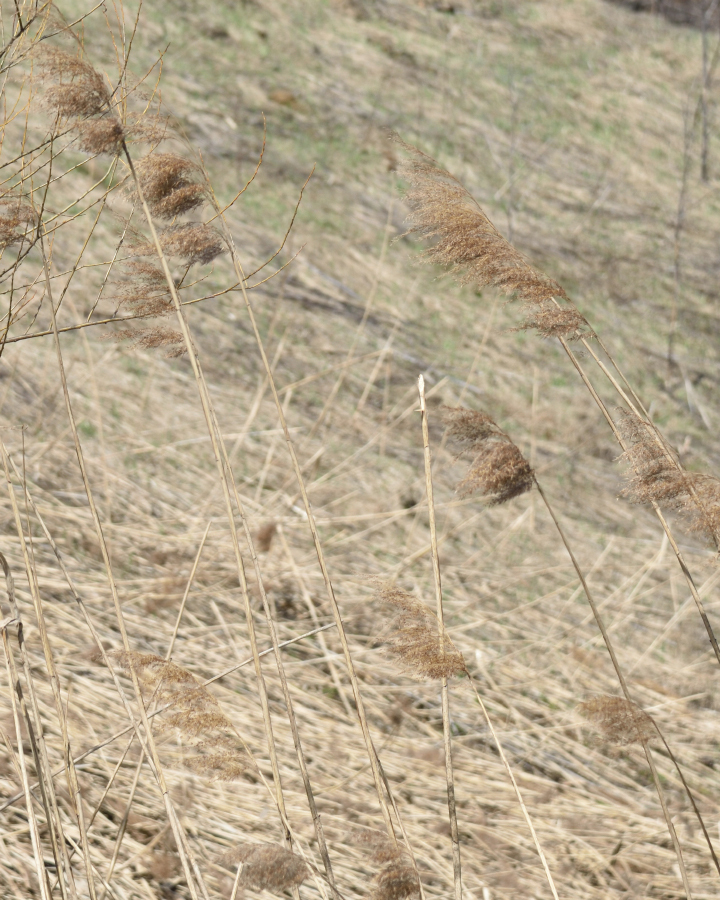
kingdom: Plantae
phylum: Tracheophyta
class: Liliopsida
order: Poales
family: Poaceae
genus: Phragmites
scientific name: Phragmites australis
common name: Common reed
